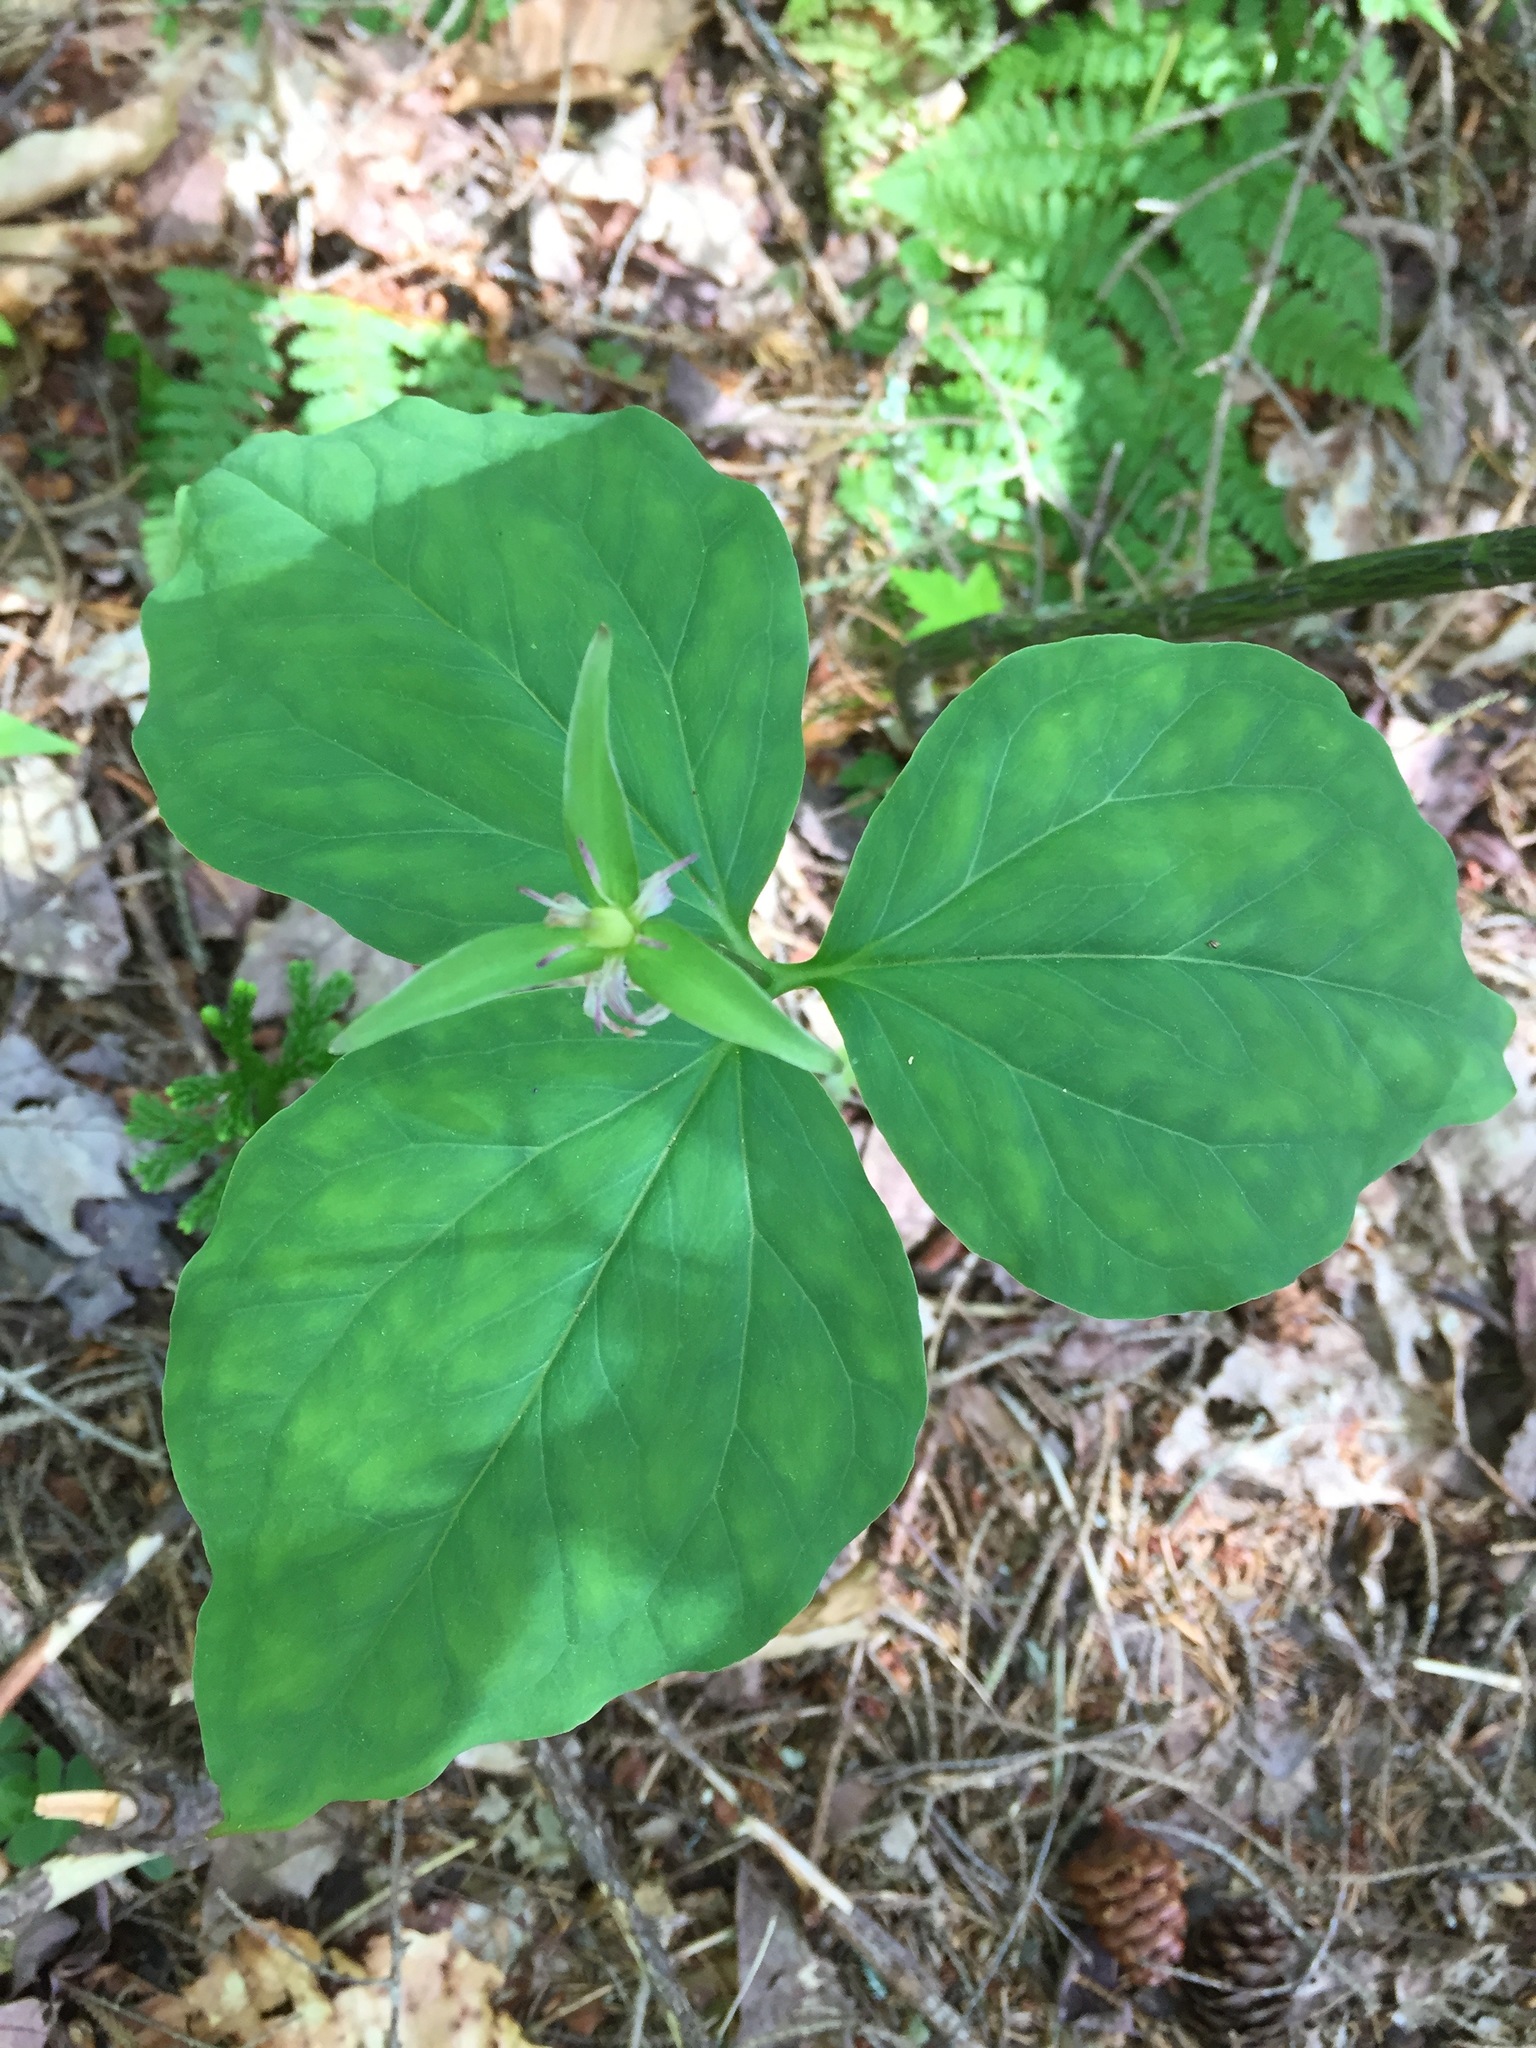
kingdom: Plantae
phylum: Tracheophyta
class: Liliopsida
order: Liliales
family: Melanthiaceae
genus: Trillium
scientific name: Trillium undulatum
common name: Paint trillium
